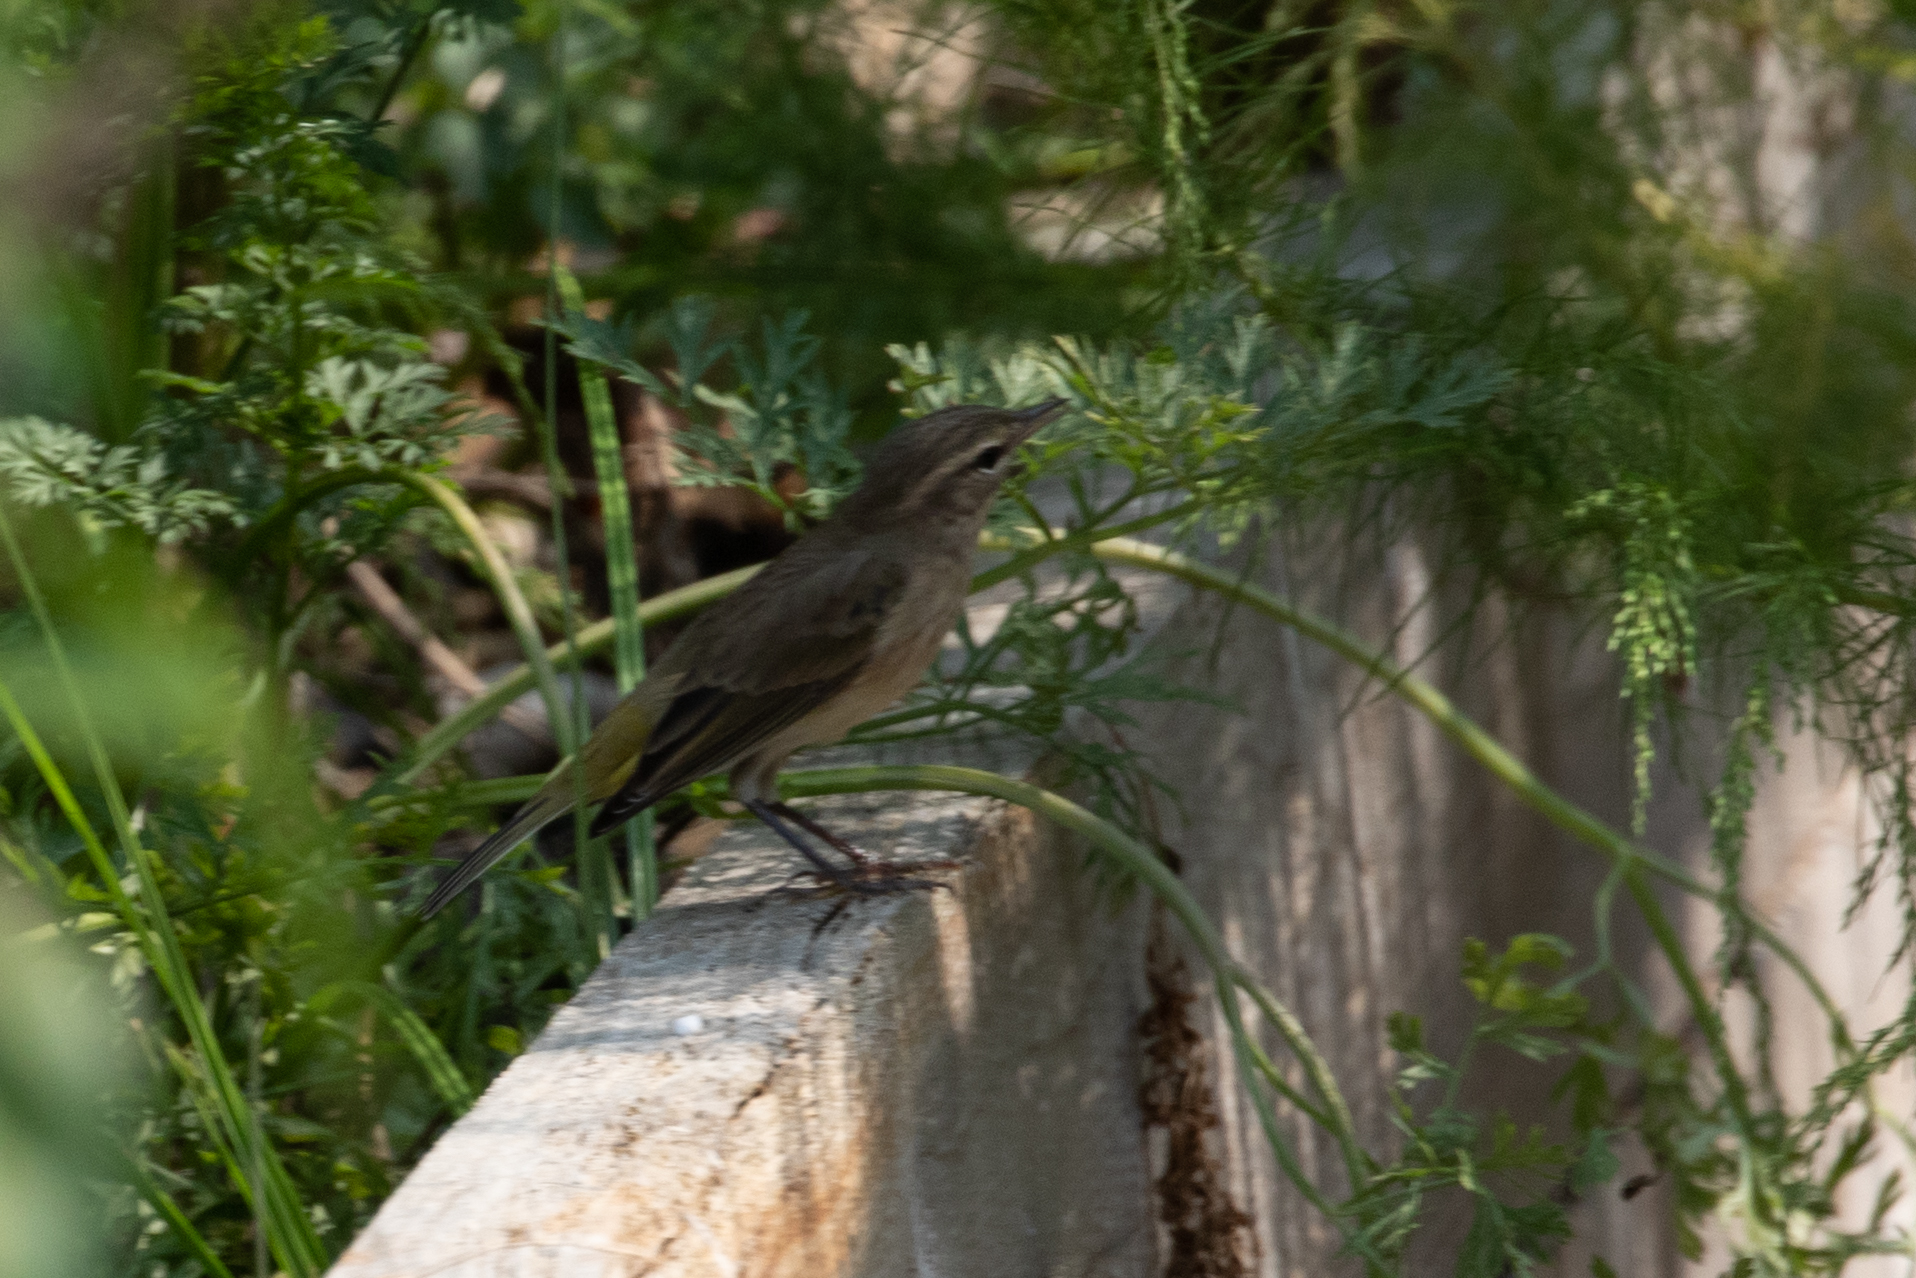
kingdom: Animalia
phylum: Chordata
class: Aves
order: Passeriformes
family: Parulidae
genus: Setophaga
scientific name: Setophaga palmarum
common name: Palm warbler
